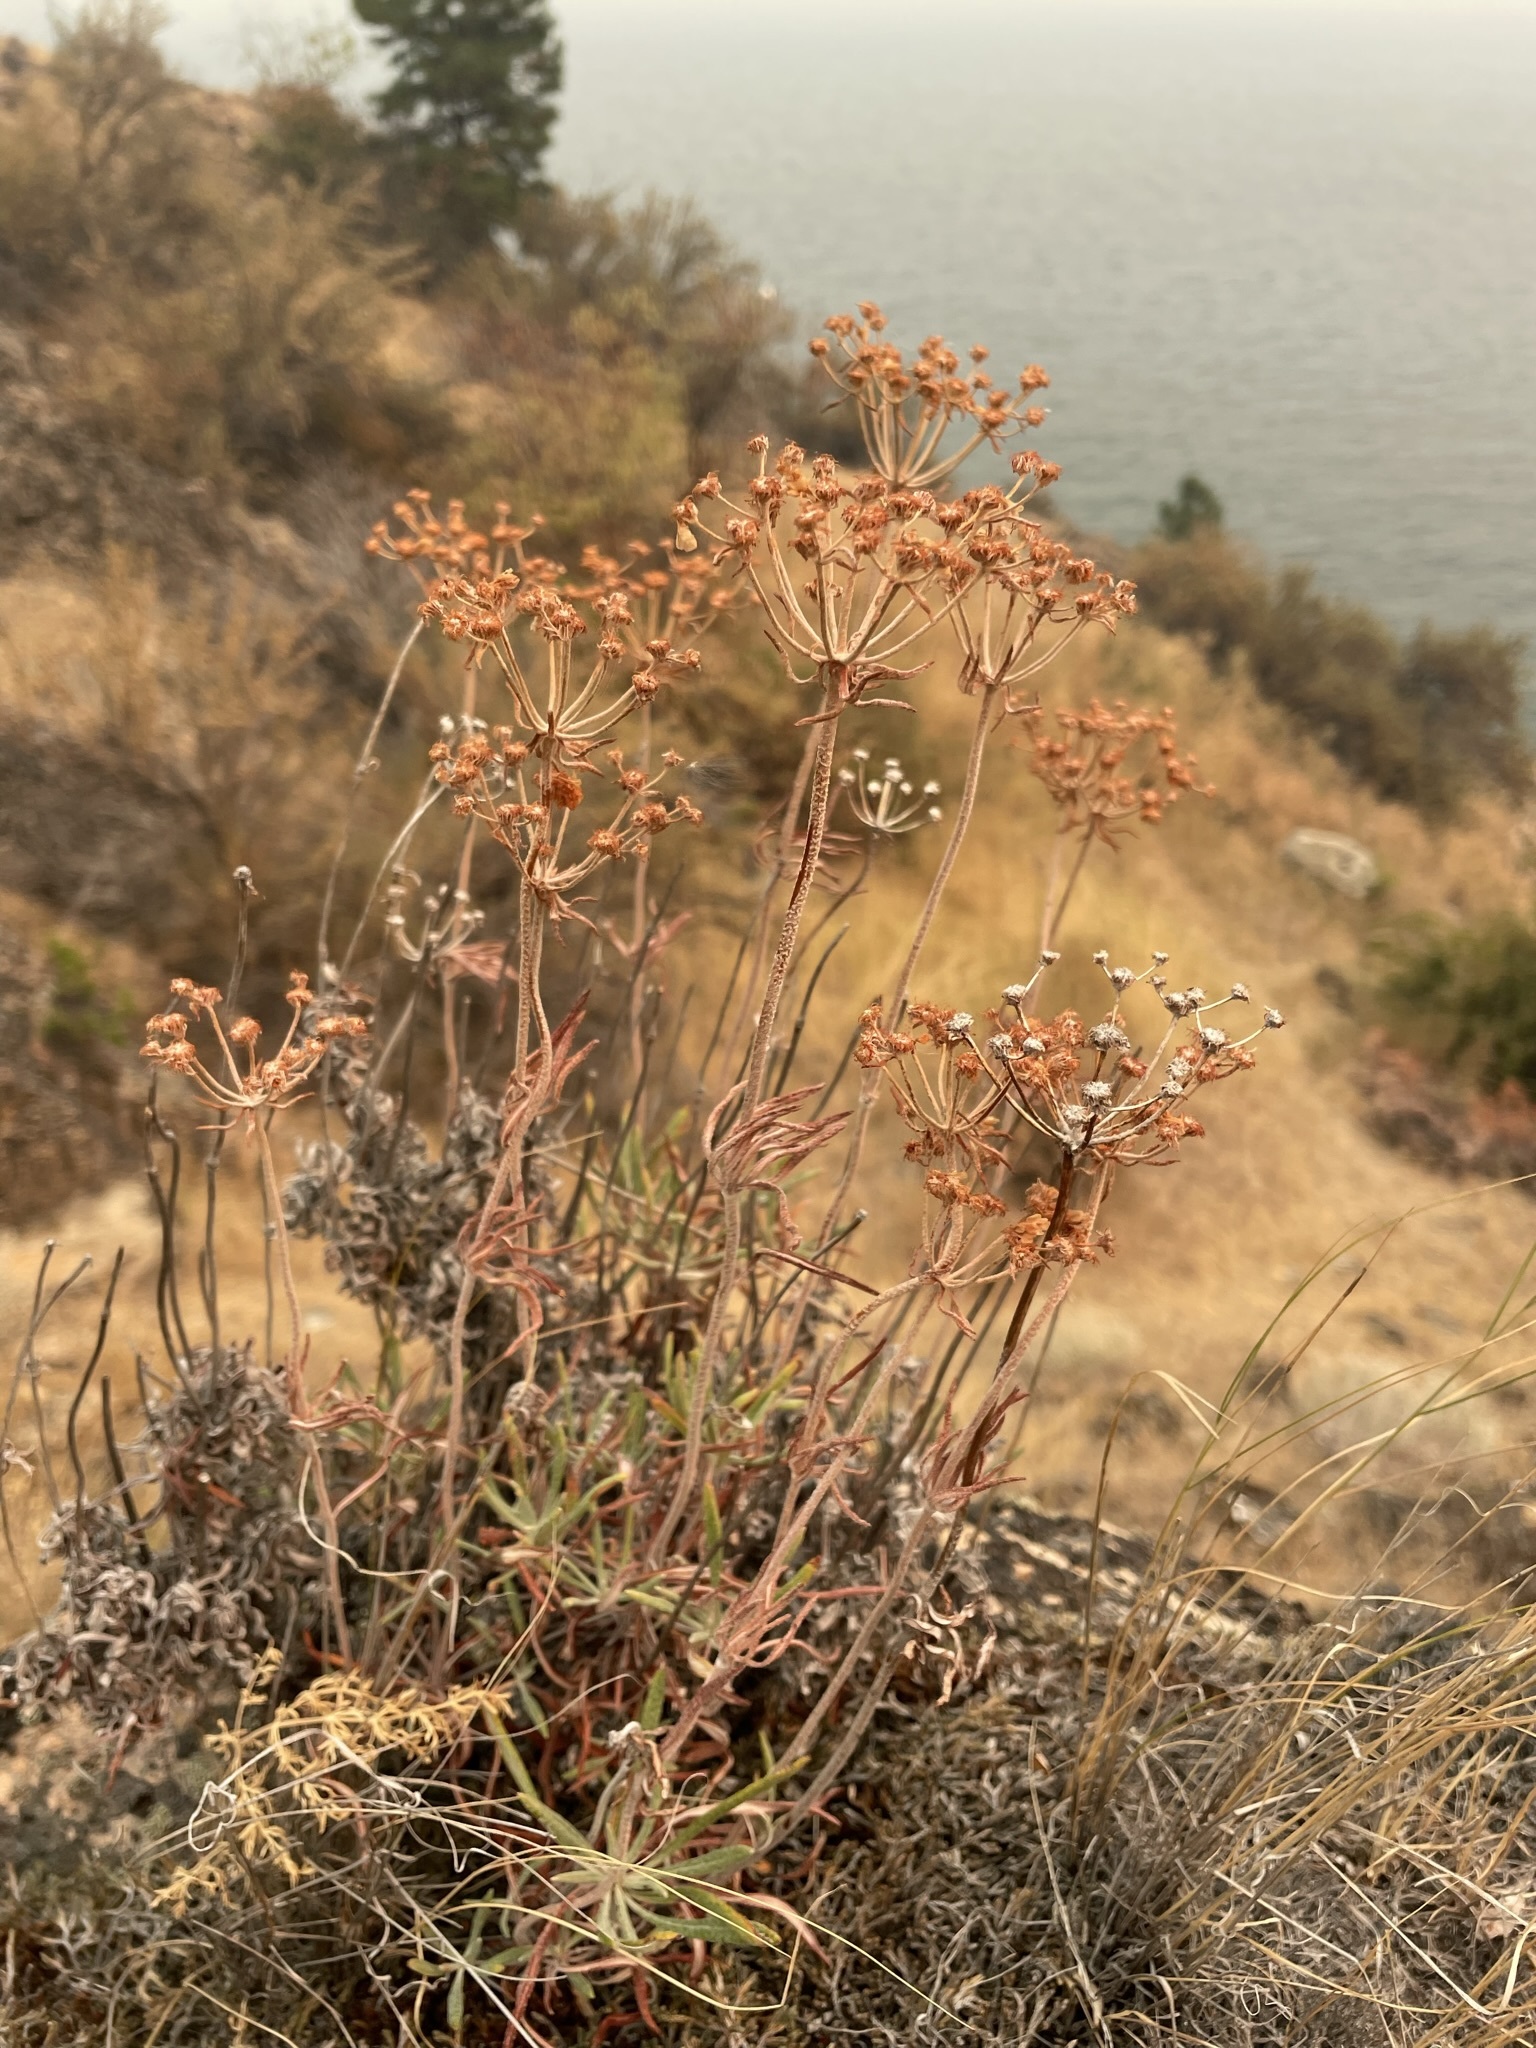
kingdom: Plantae
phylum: Tracheophyta
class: Magnoliopsida
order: Caryophyllales
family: Polygonaceae
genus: Eriogonum
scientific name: Eriogonum heracleoides
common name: Wyeth's buckwheat
